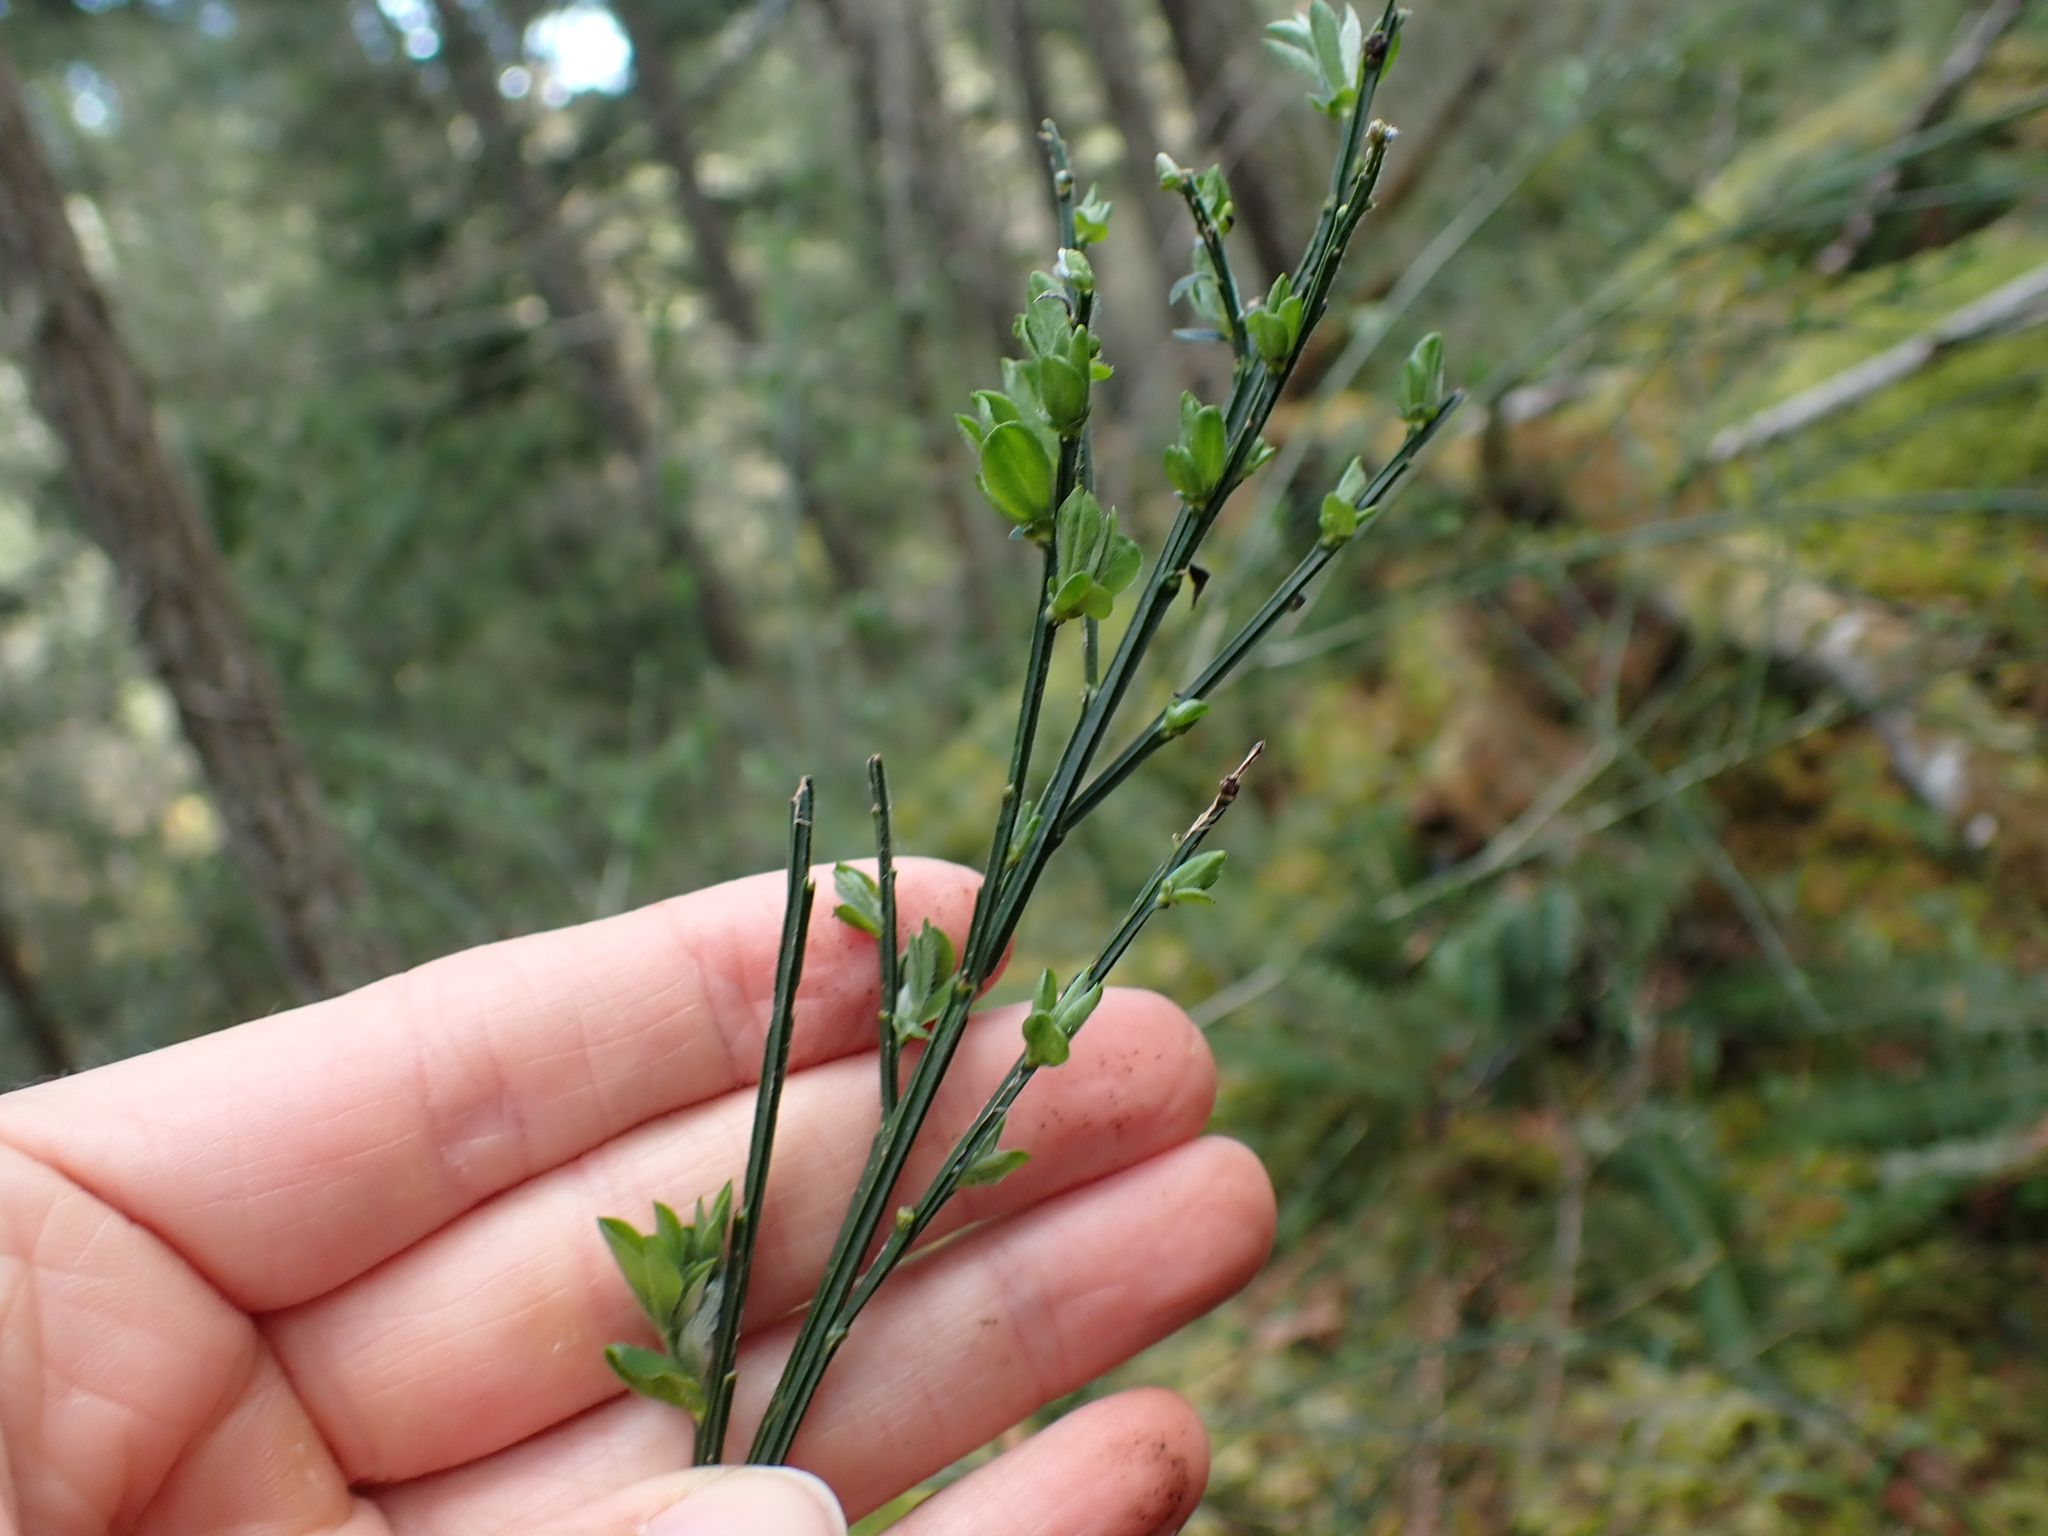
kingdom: Plantae
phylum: Tracheophyta
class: Magnoliopsida
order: Fabales
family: Fabaceae
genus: Cytisus
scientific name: Cytisus scoparius
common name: Scotch broom
